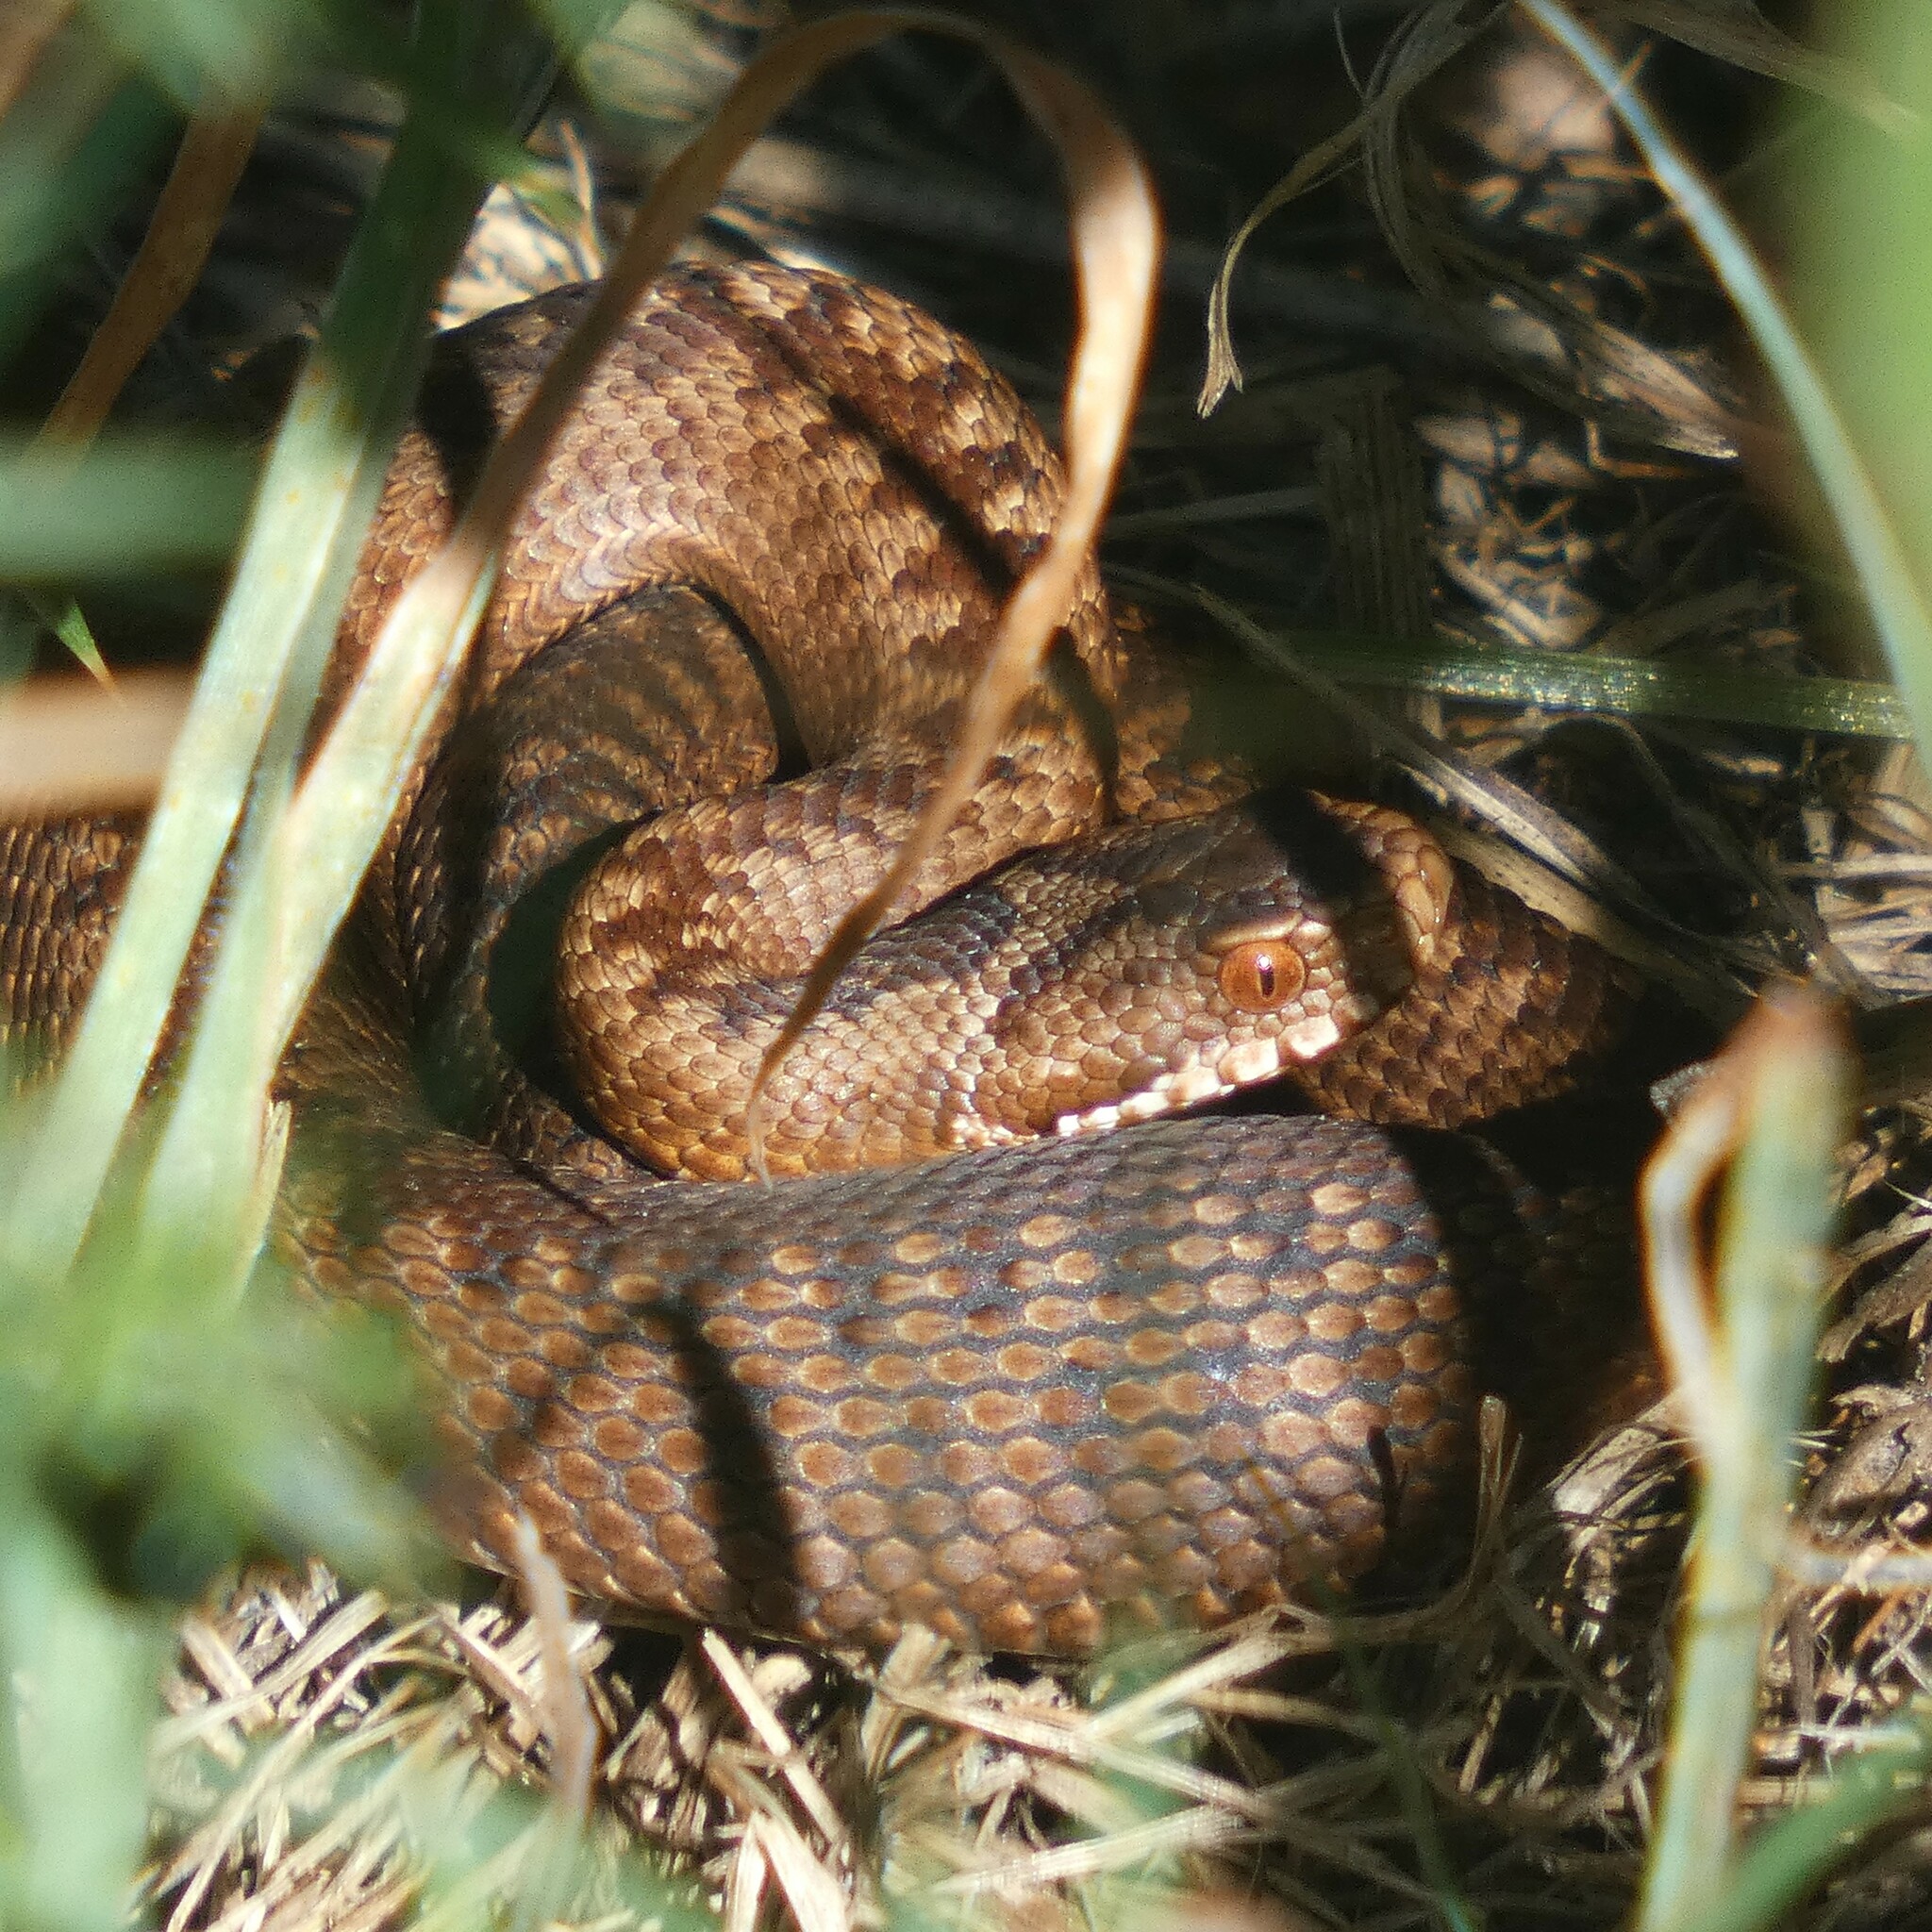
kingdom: Animalia
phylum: Chordata
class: Squamata
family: Viperidae
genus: Vipera
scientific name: Vipera berus
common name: Adder
